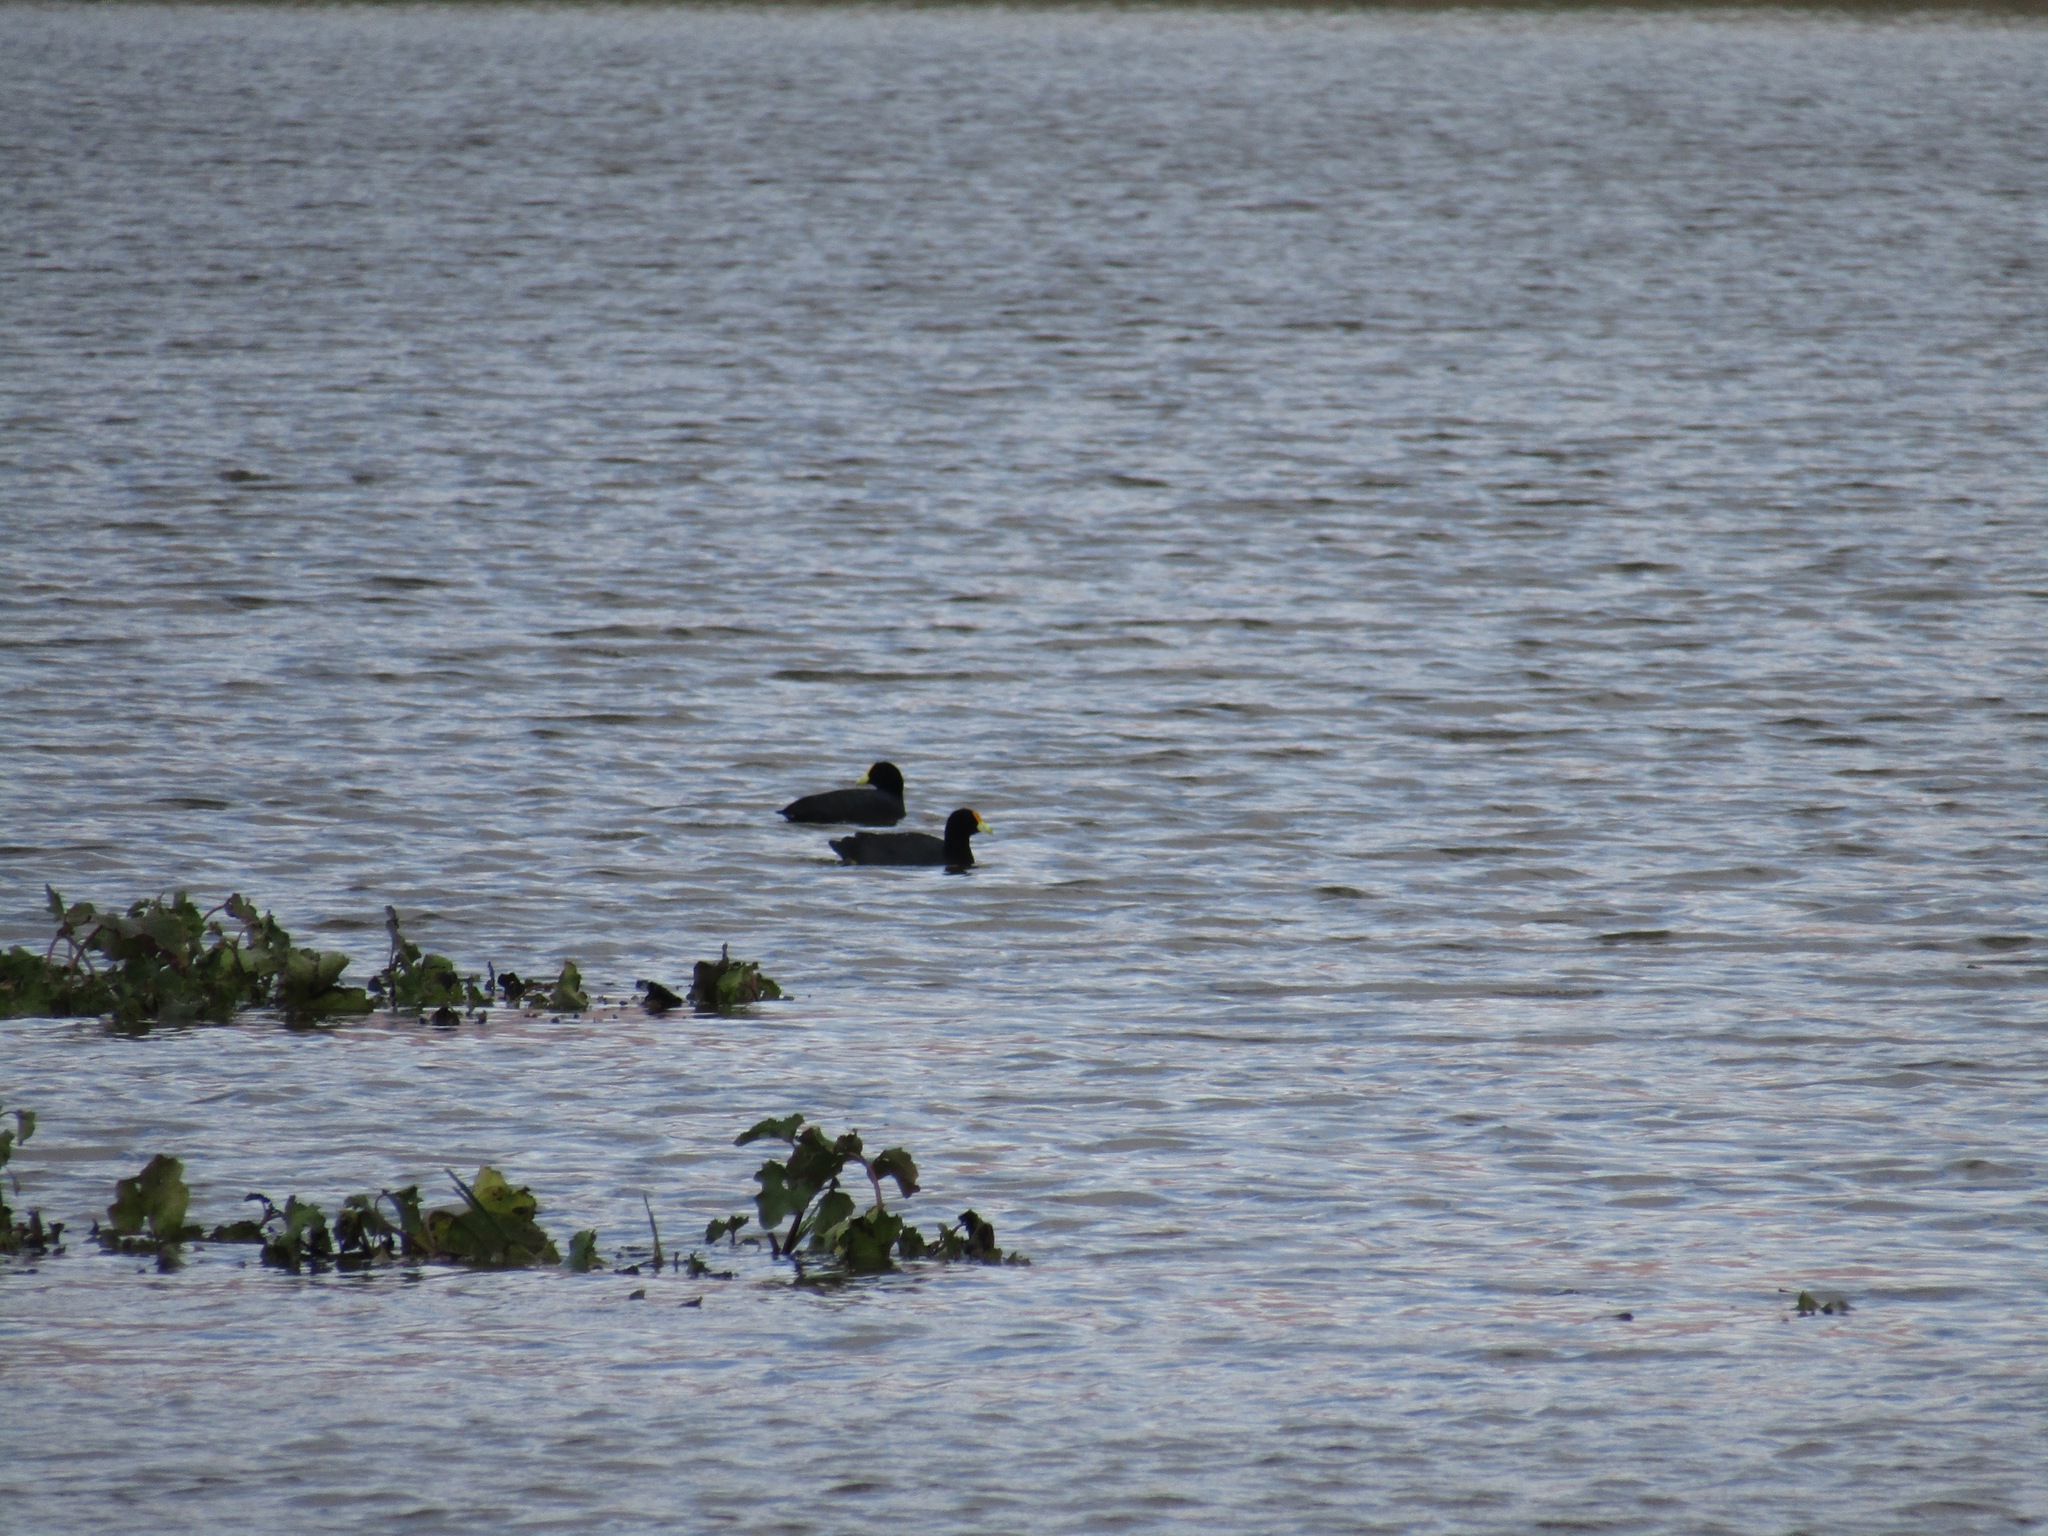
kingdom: Animalia
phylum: Chordata
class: Aves
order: Gruiformes
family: Rallidae
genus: Fulica
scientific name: Fulica leucoptera
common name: White-winged coot
